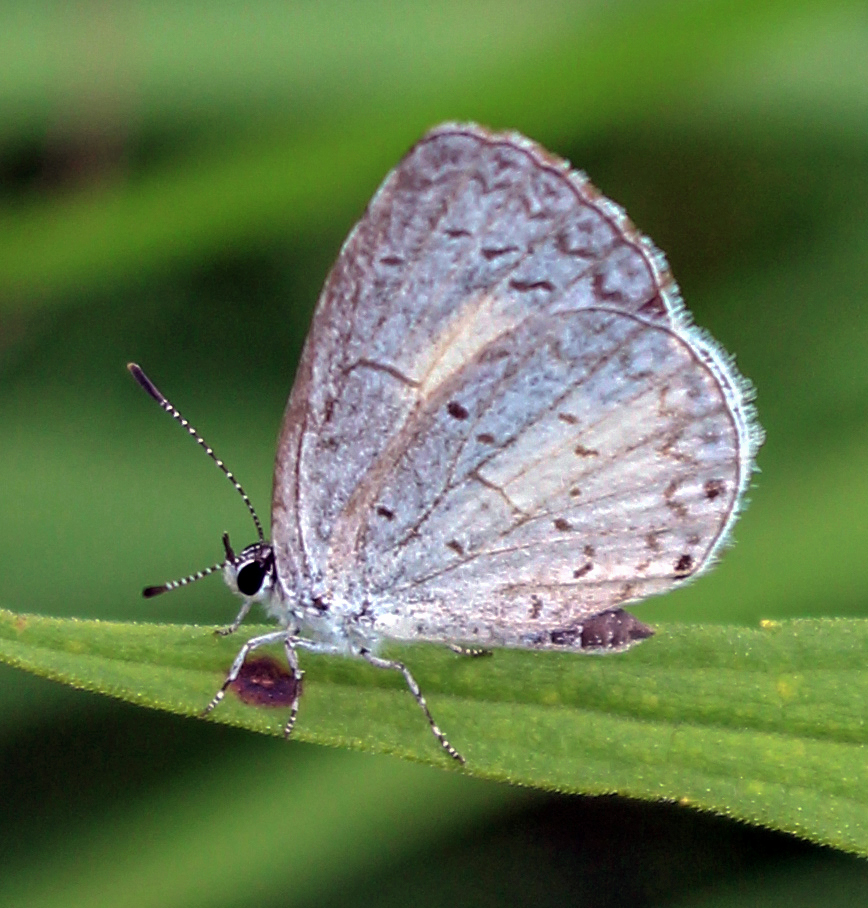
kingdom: Animalia
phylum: Arthropoda
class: Insecta
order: Lepidoptera
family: Lycaenidae
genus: Cyaniris
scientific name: Cyaniris neglecta
